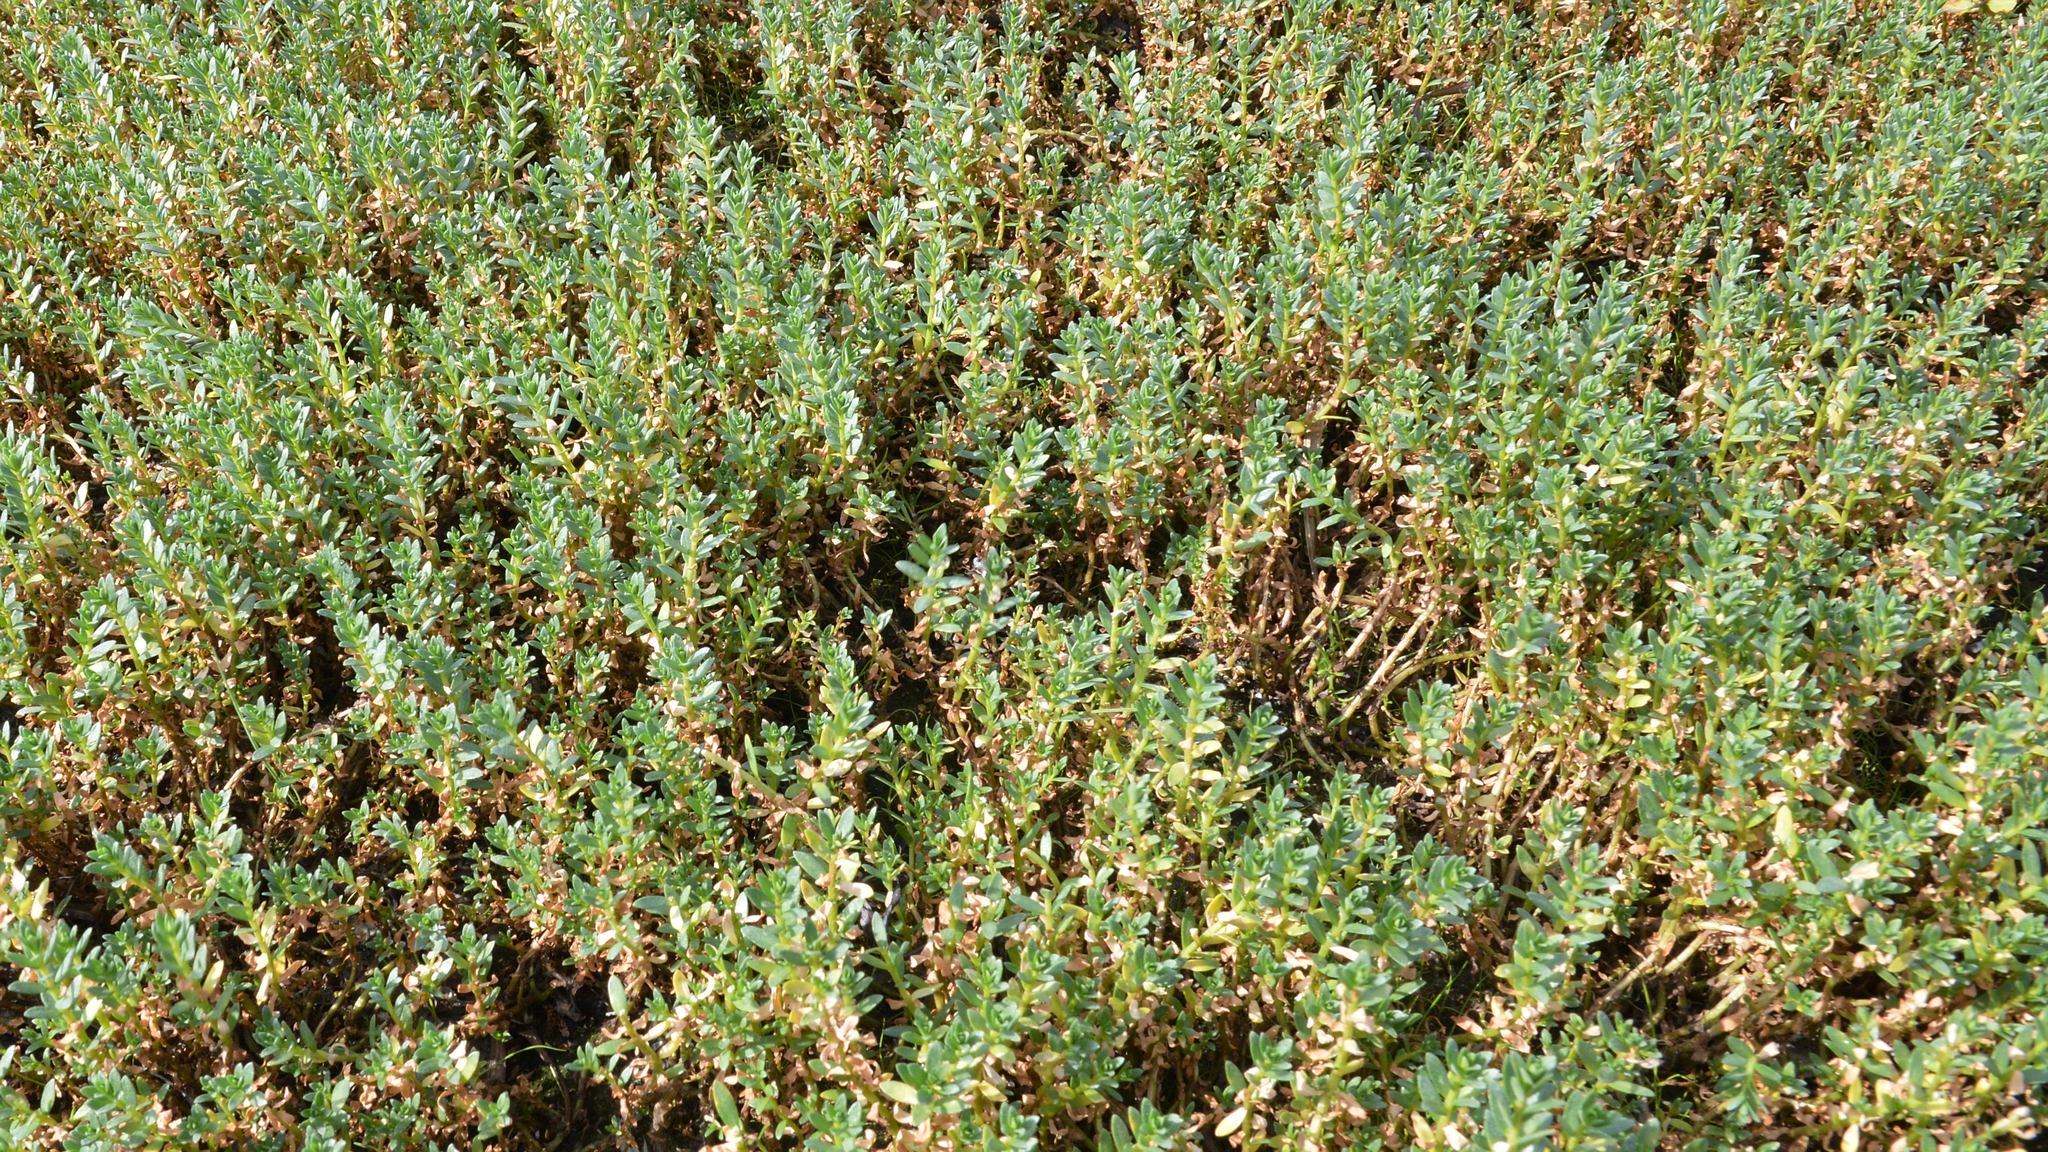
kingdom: Plantae
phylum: Tracheophyta
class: Magnoliopsida
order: Ericales
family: Primulaceae
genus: Lysimachia
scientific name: Lysimachia maritima
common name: Sea milkwort
